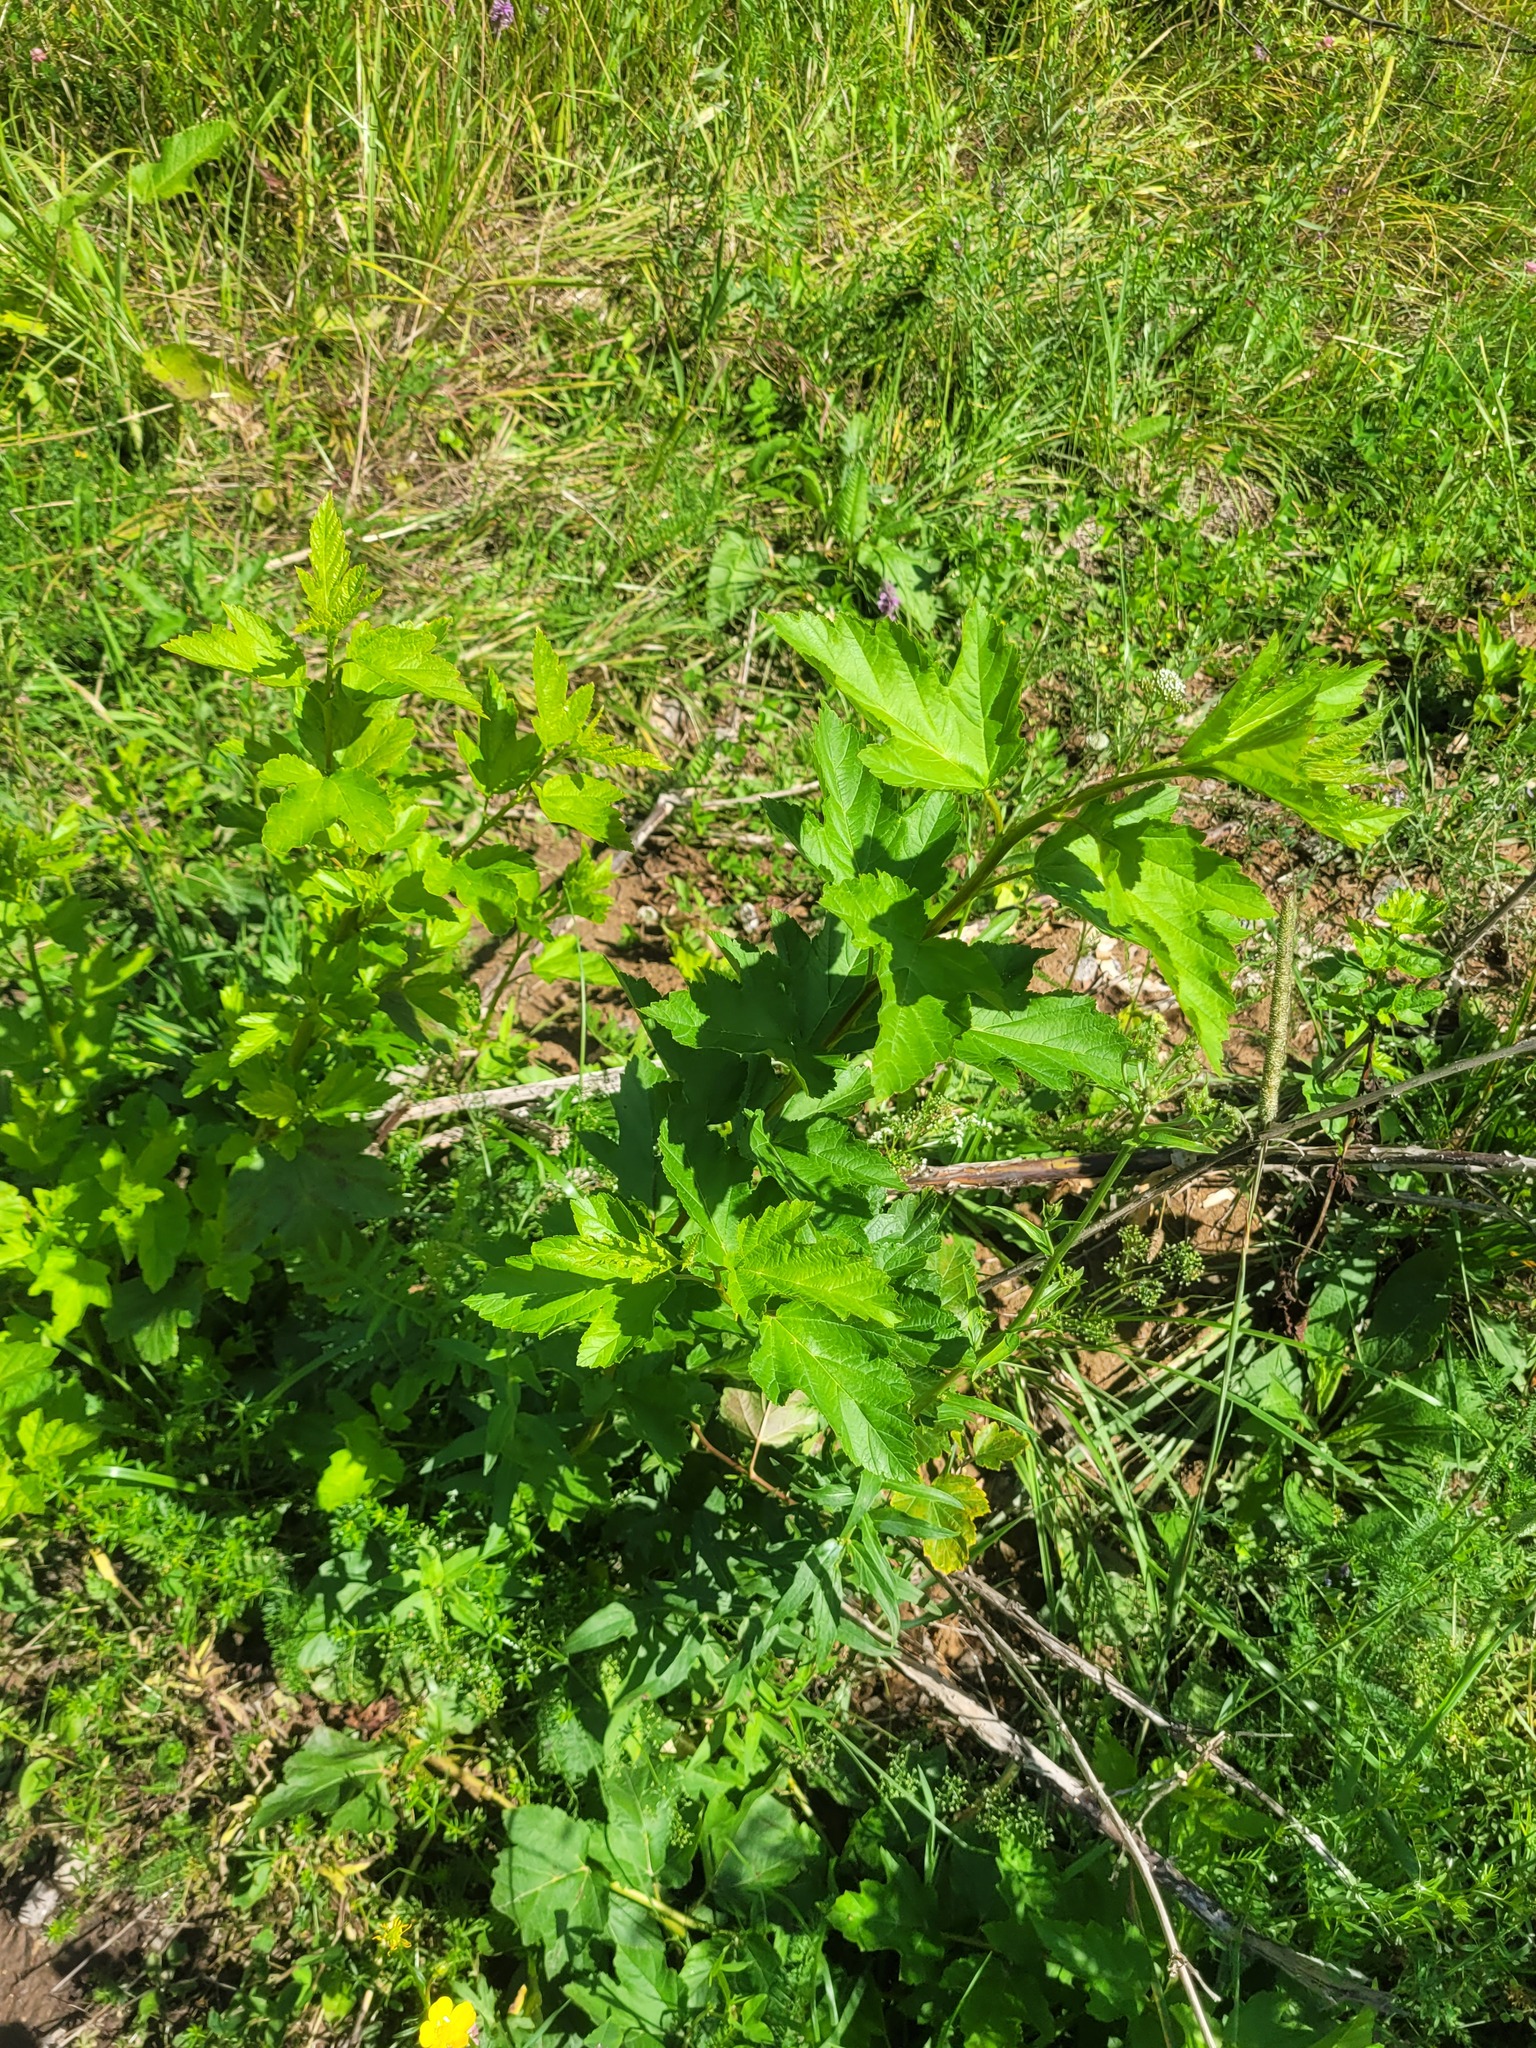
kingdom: Plantae
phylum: Tracheophyta
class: Magnoliopsida
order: Rosales
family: Rosaceae
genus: Physocarpus
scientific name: Physocarpus opulifolius
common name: Ninebark
